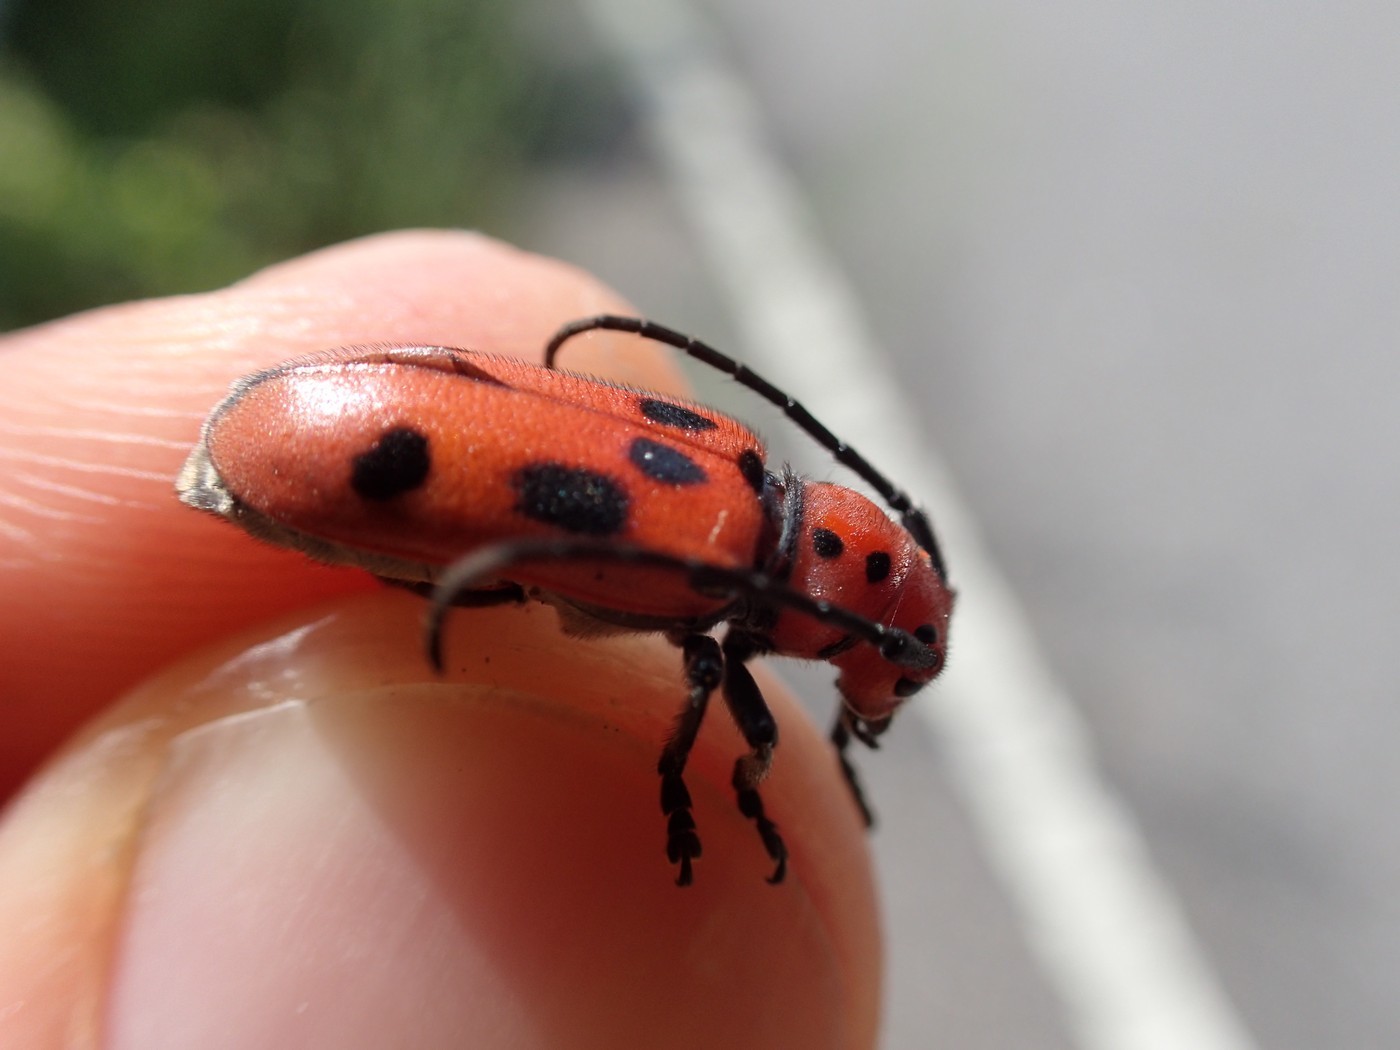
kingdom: Animalia
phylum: Arthropoda
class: Insecta
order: Coleoptera
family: Cerambycidae
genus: Tetraopes
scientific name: Tetraopes tetrophthalmus
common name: Red milkweed beetle
